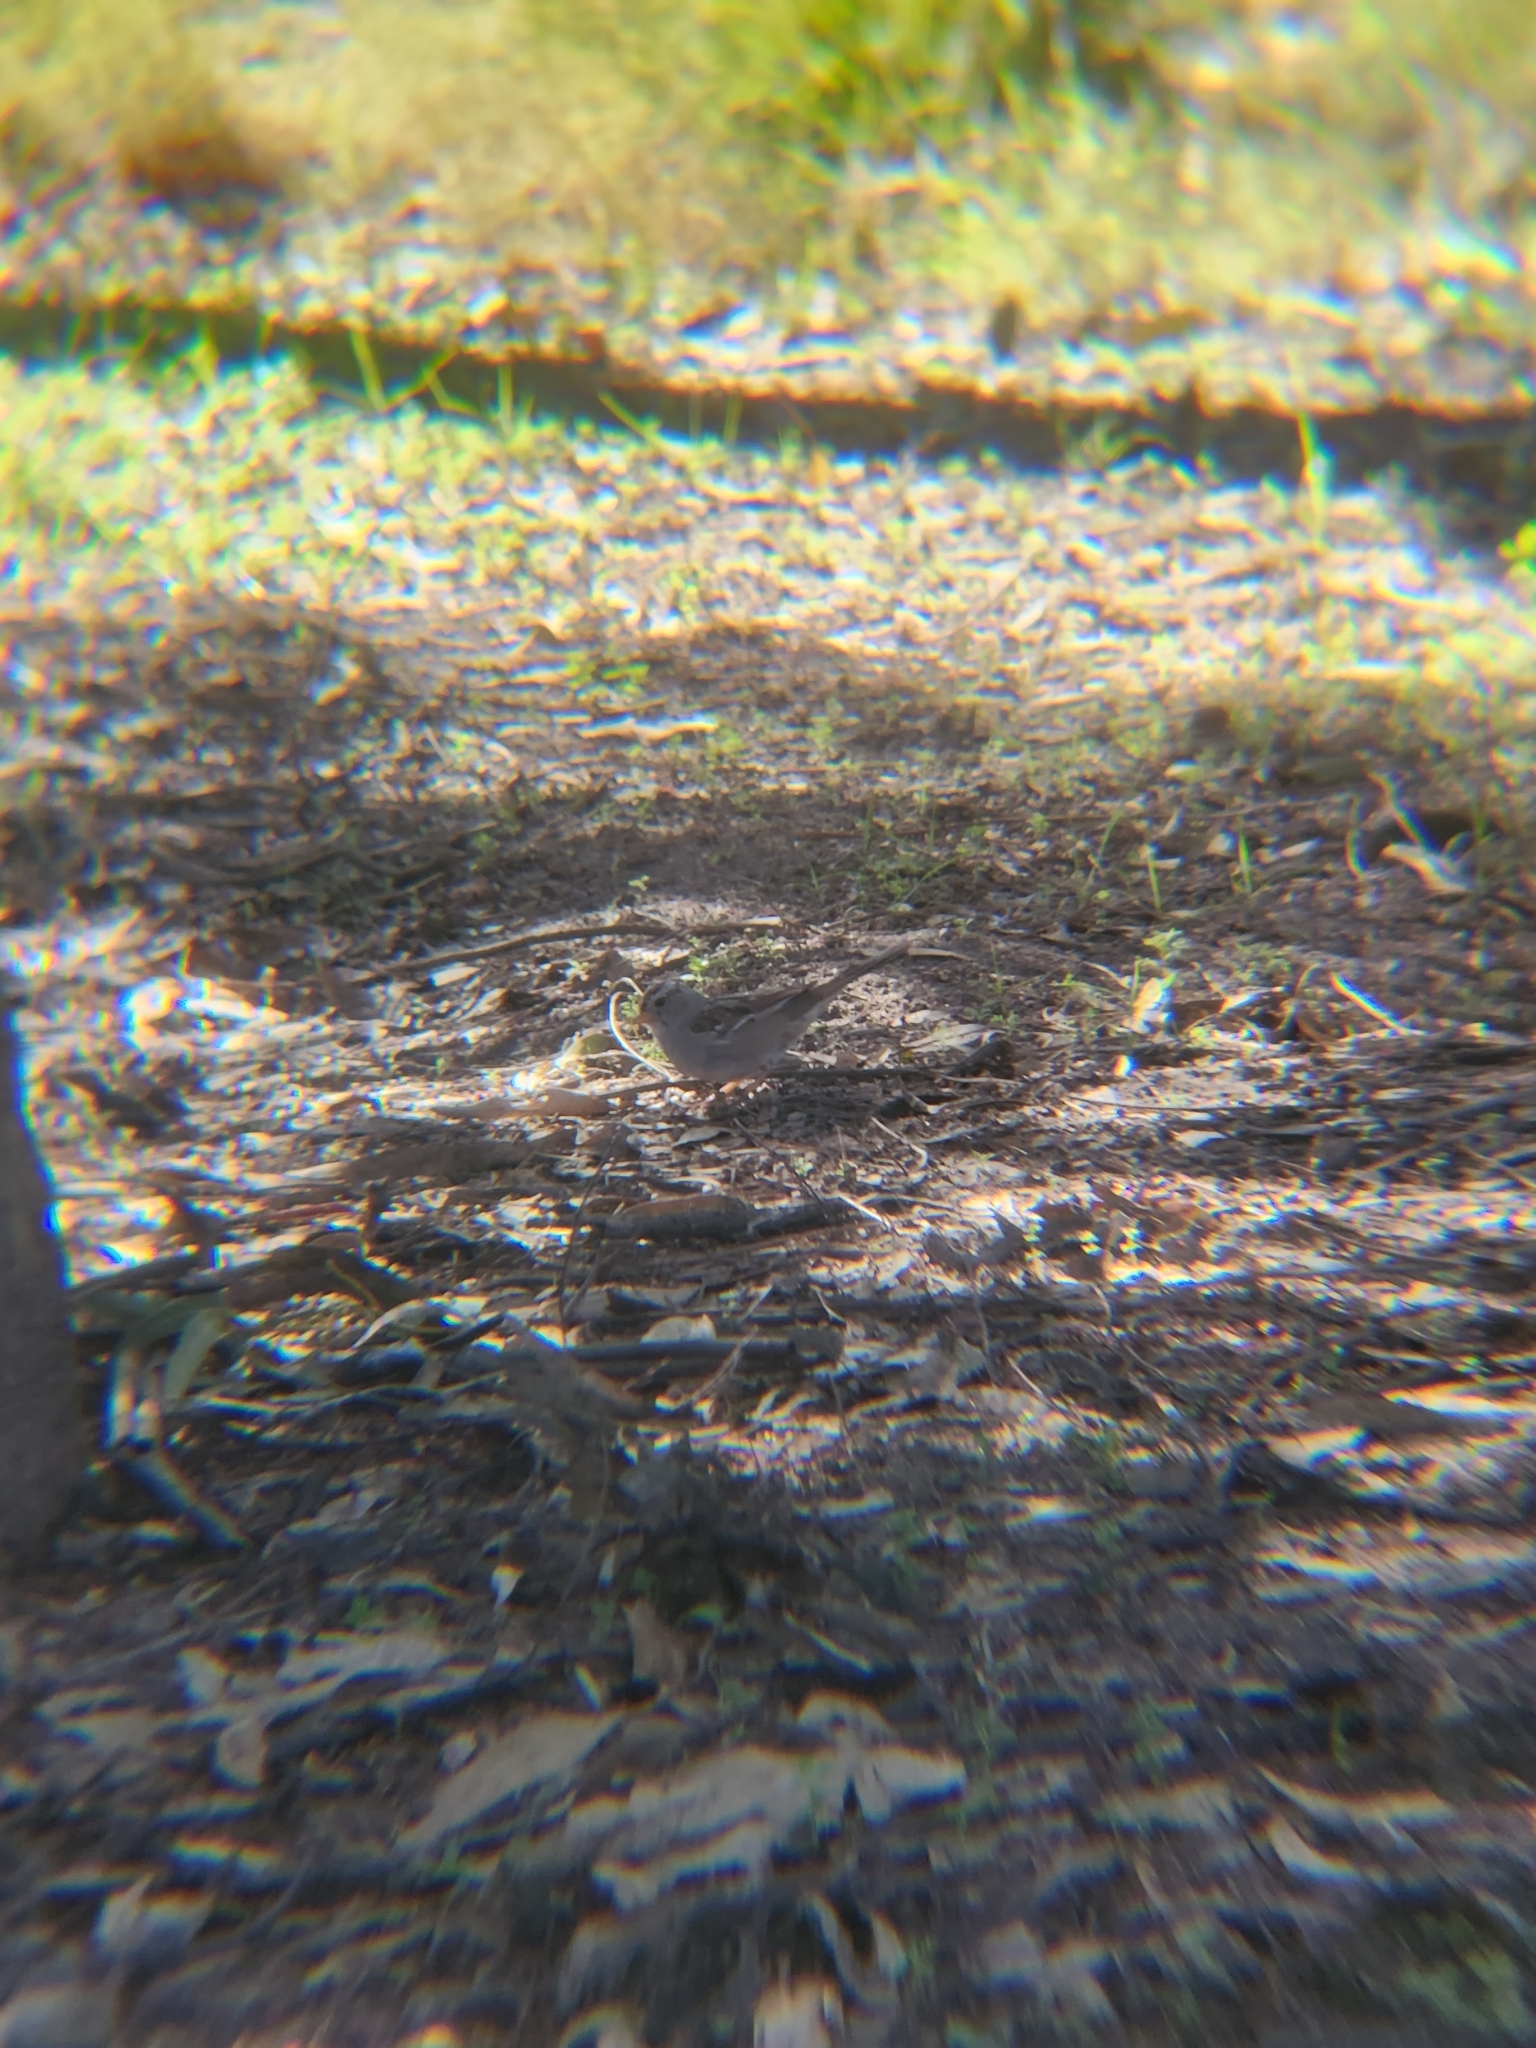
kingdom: Animalia
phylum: Chordata
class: Aves
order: Passeriformes
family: Passerellidae
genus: Zonotrichia
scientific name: Zonotrichia leucophrys
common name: White-crowned sparrow
